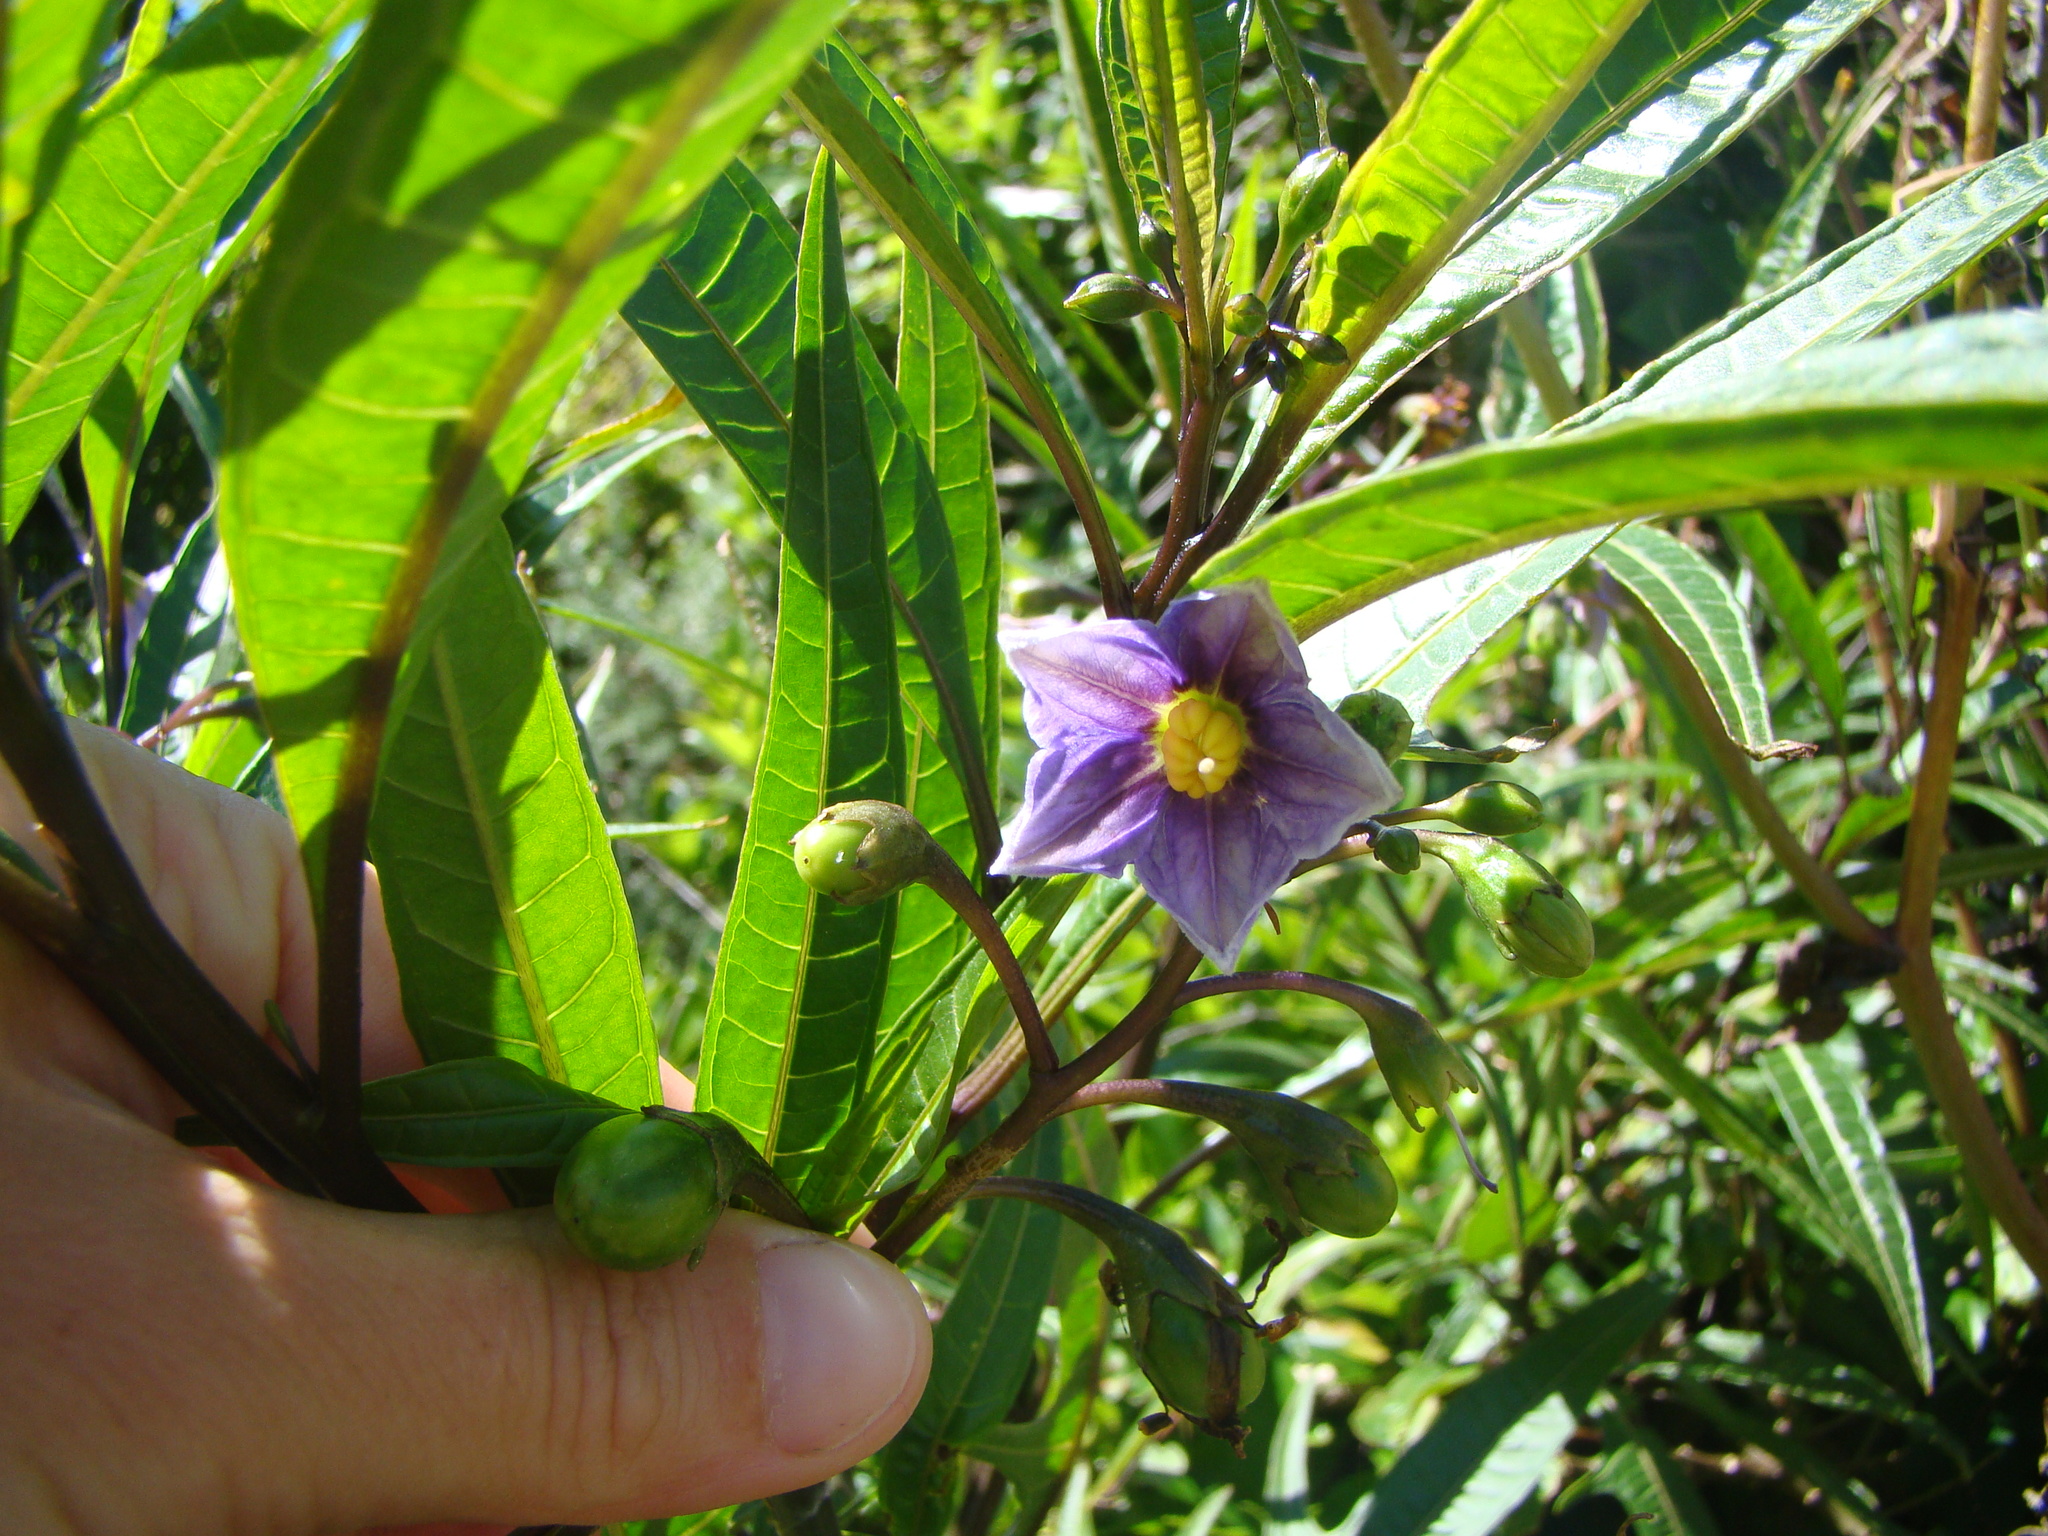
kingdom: Plantae
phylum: Tracheophyta
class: Magnoliopsida
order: Solanales
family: Solanaceae
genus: Solanum
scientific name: Solanum aviculare
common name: New zealand nightshade
